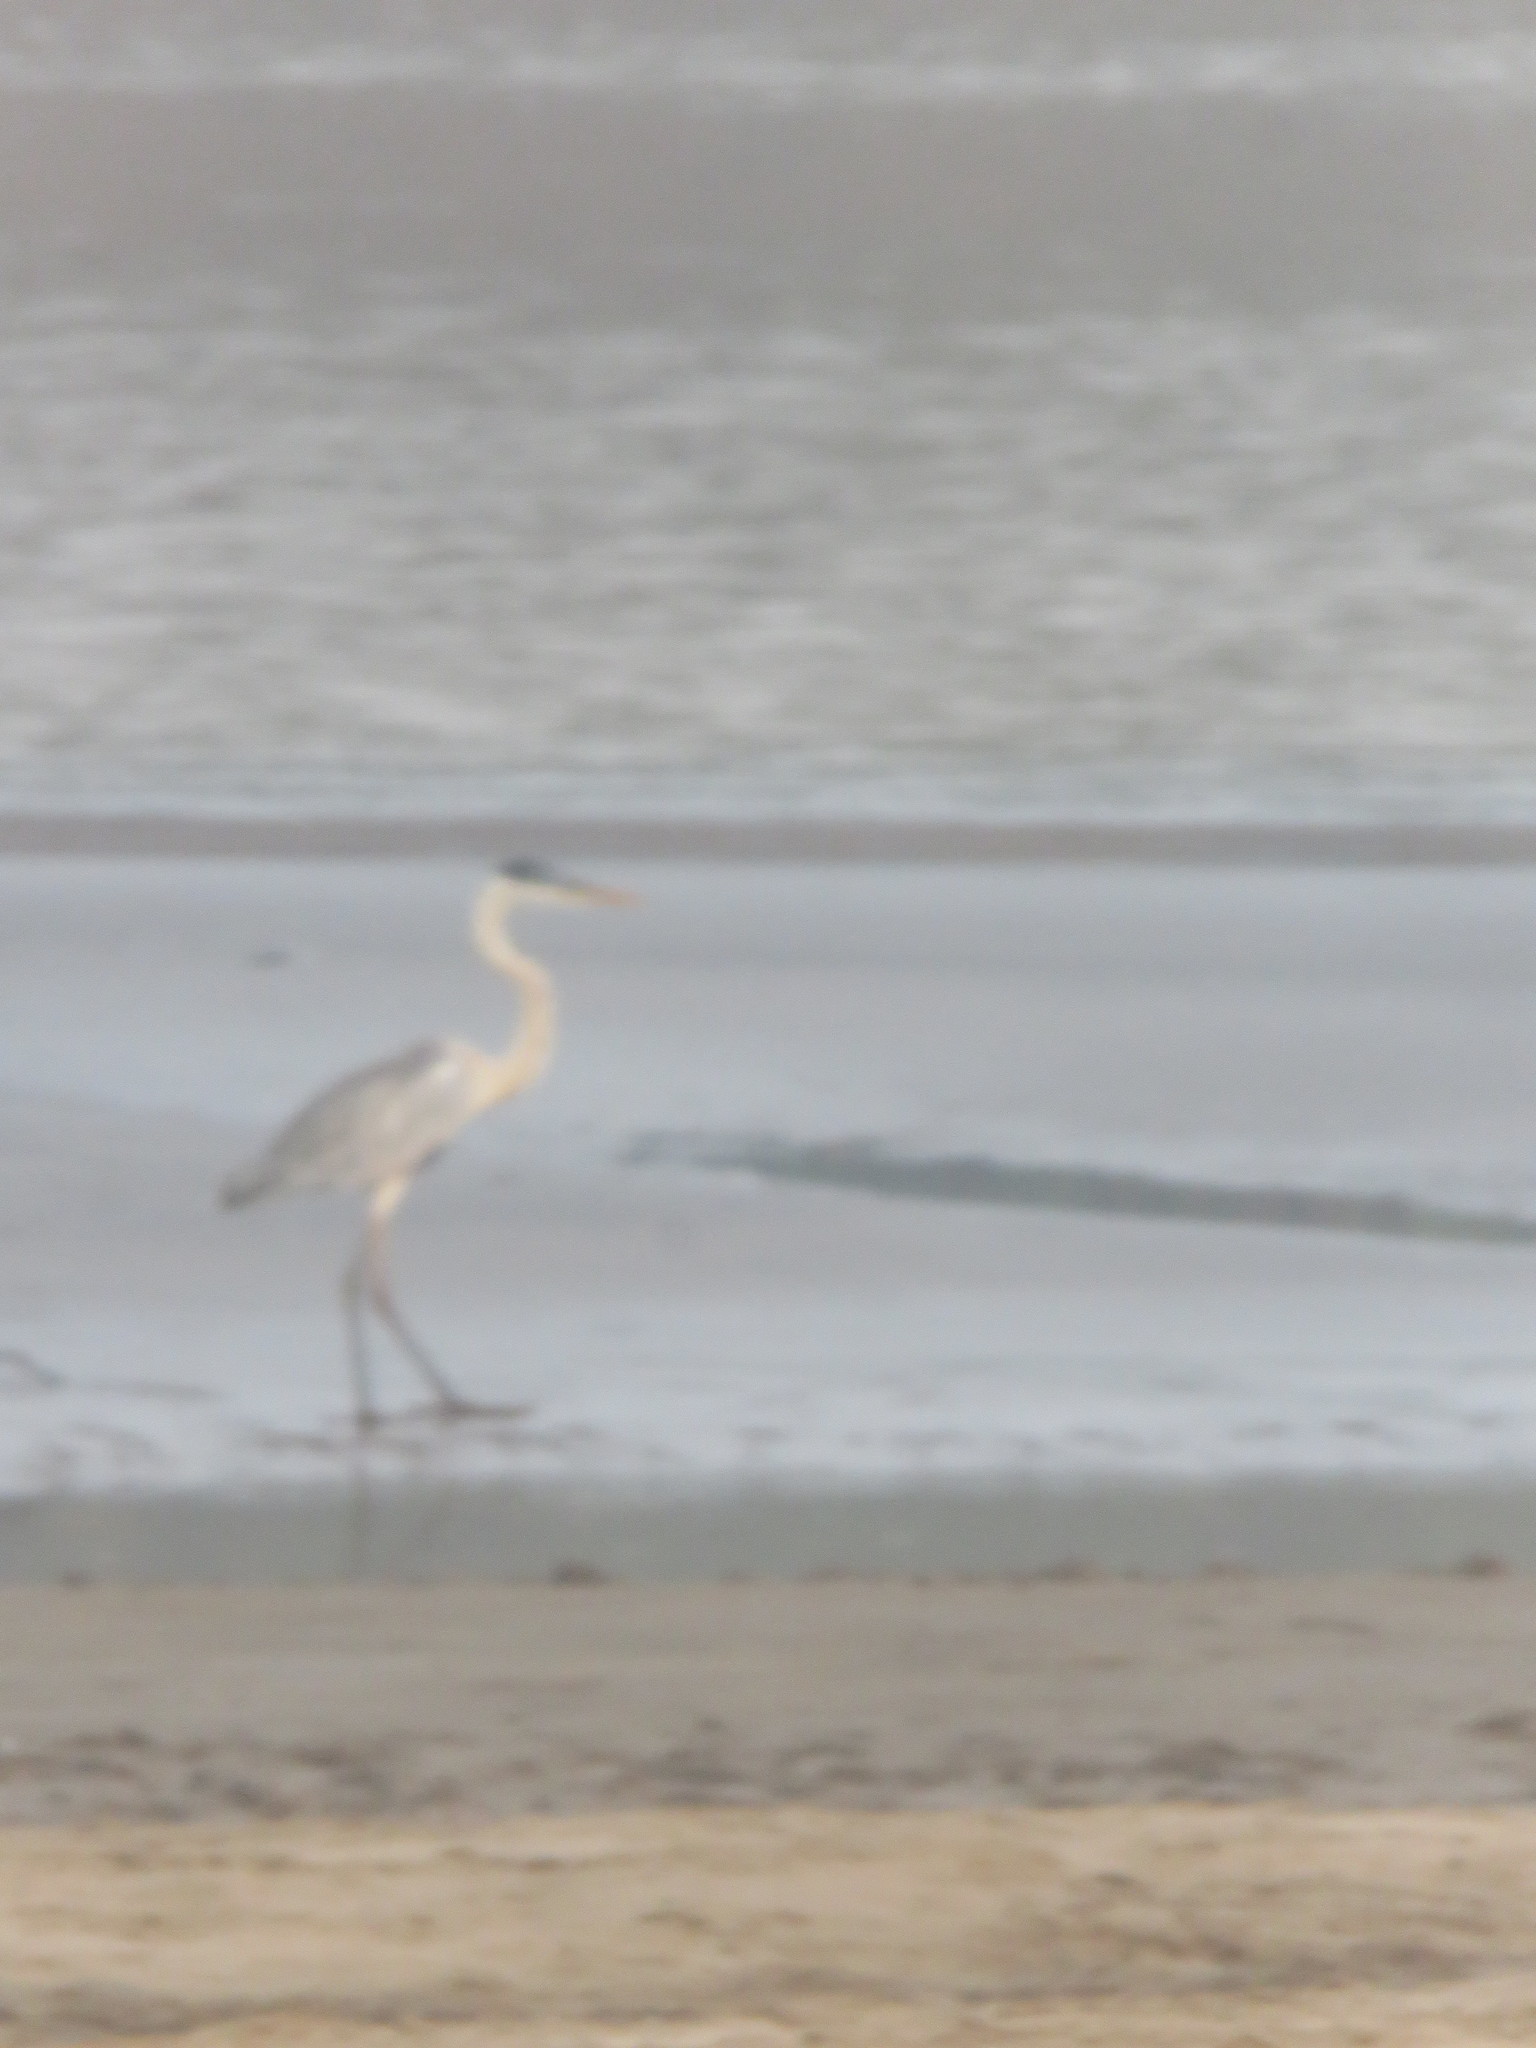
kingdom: Animalia
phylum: Chordata
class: Aves
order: Pelecaniformes
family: Ardeidae
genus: Ardea
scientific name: Ardea cocoi
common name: Cocoi heron
